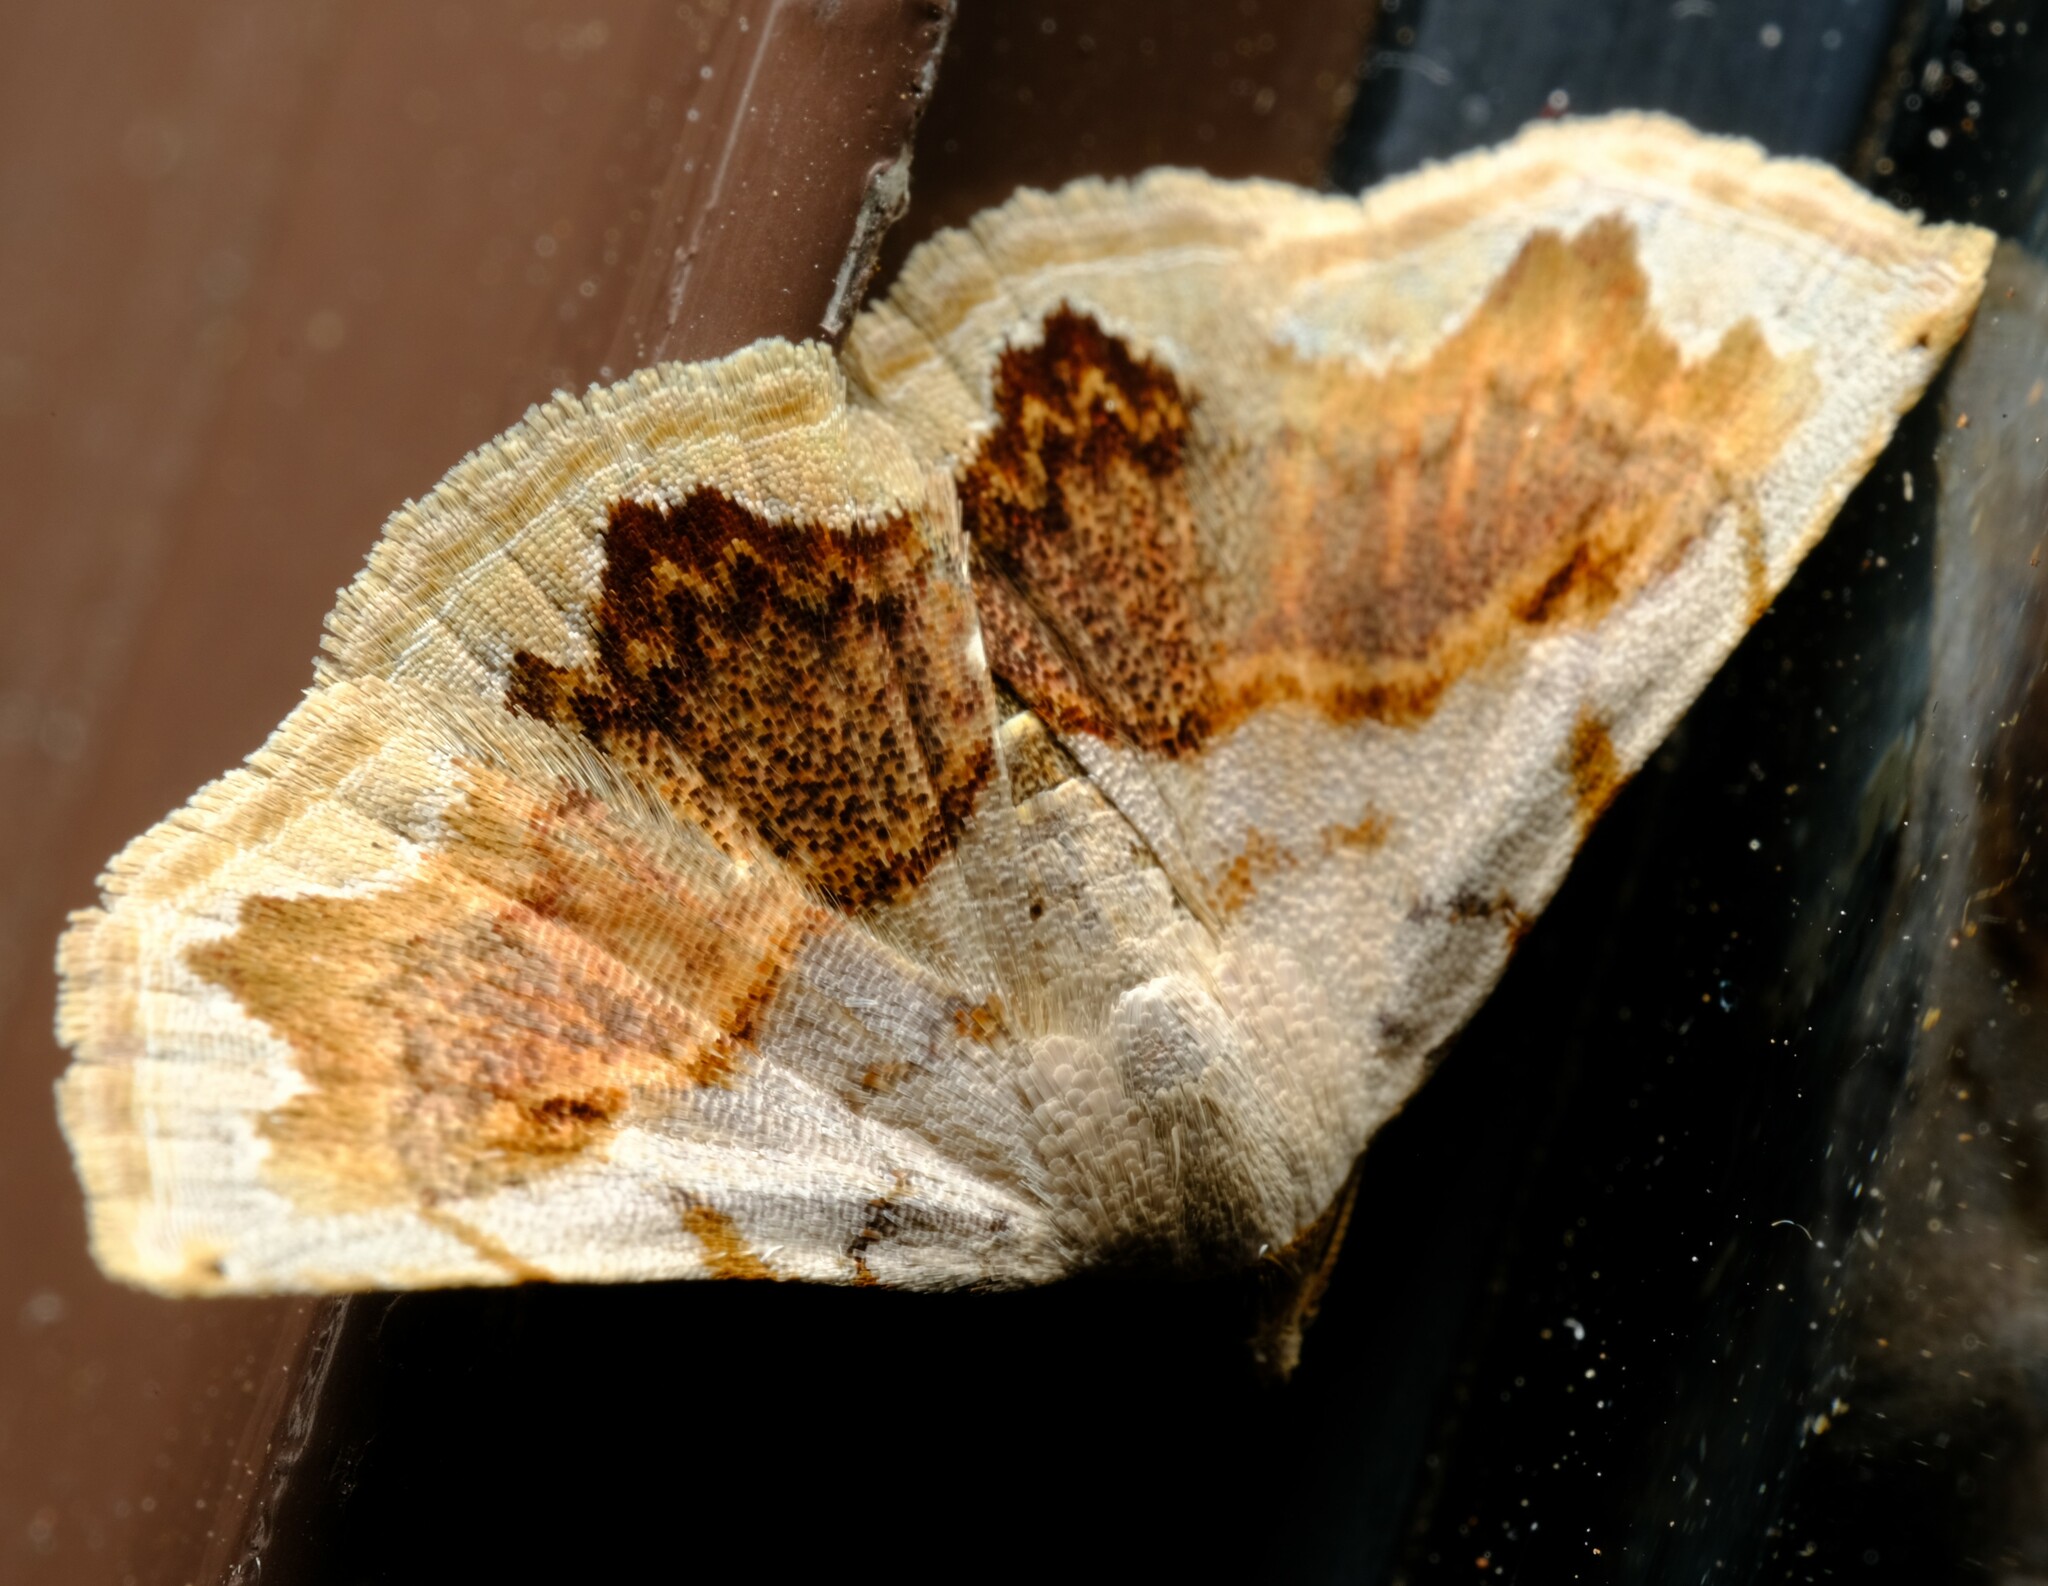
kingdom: Animalia
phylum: Arthropoda
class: Insecta
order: Lepidoptera
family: Noctuidae
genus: Eublemma
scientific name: Eublemma
